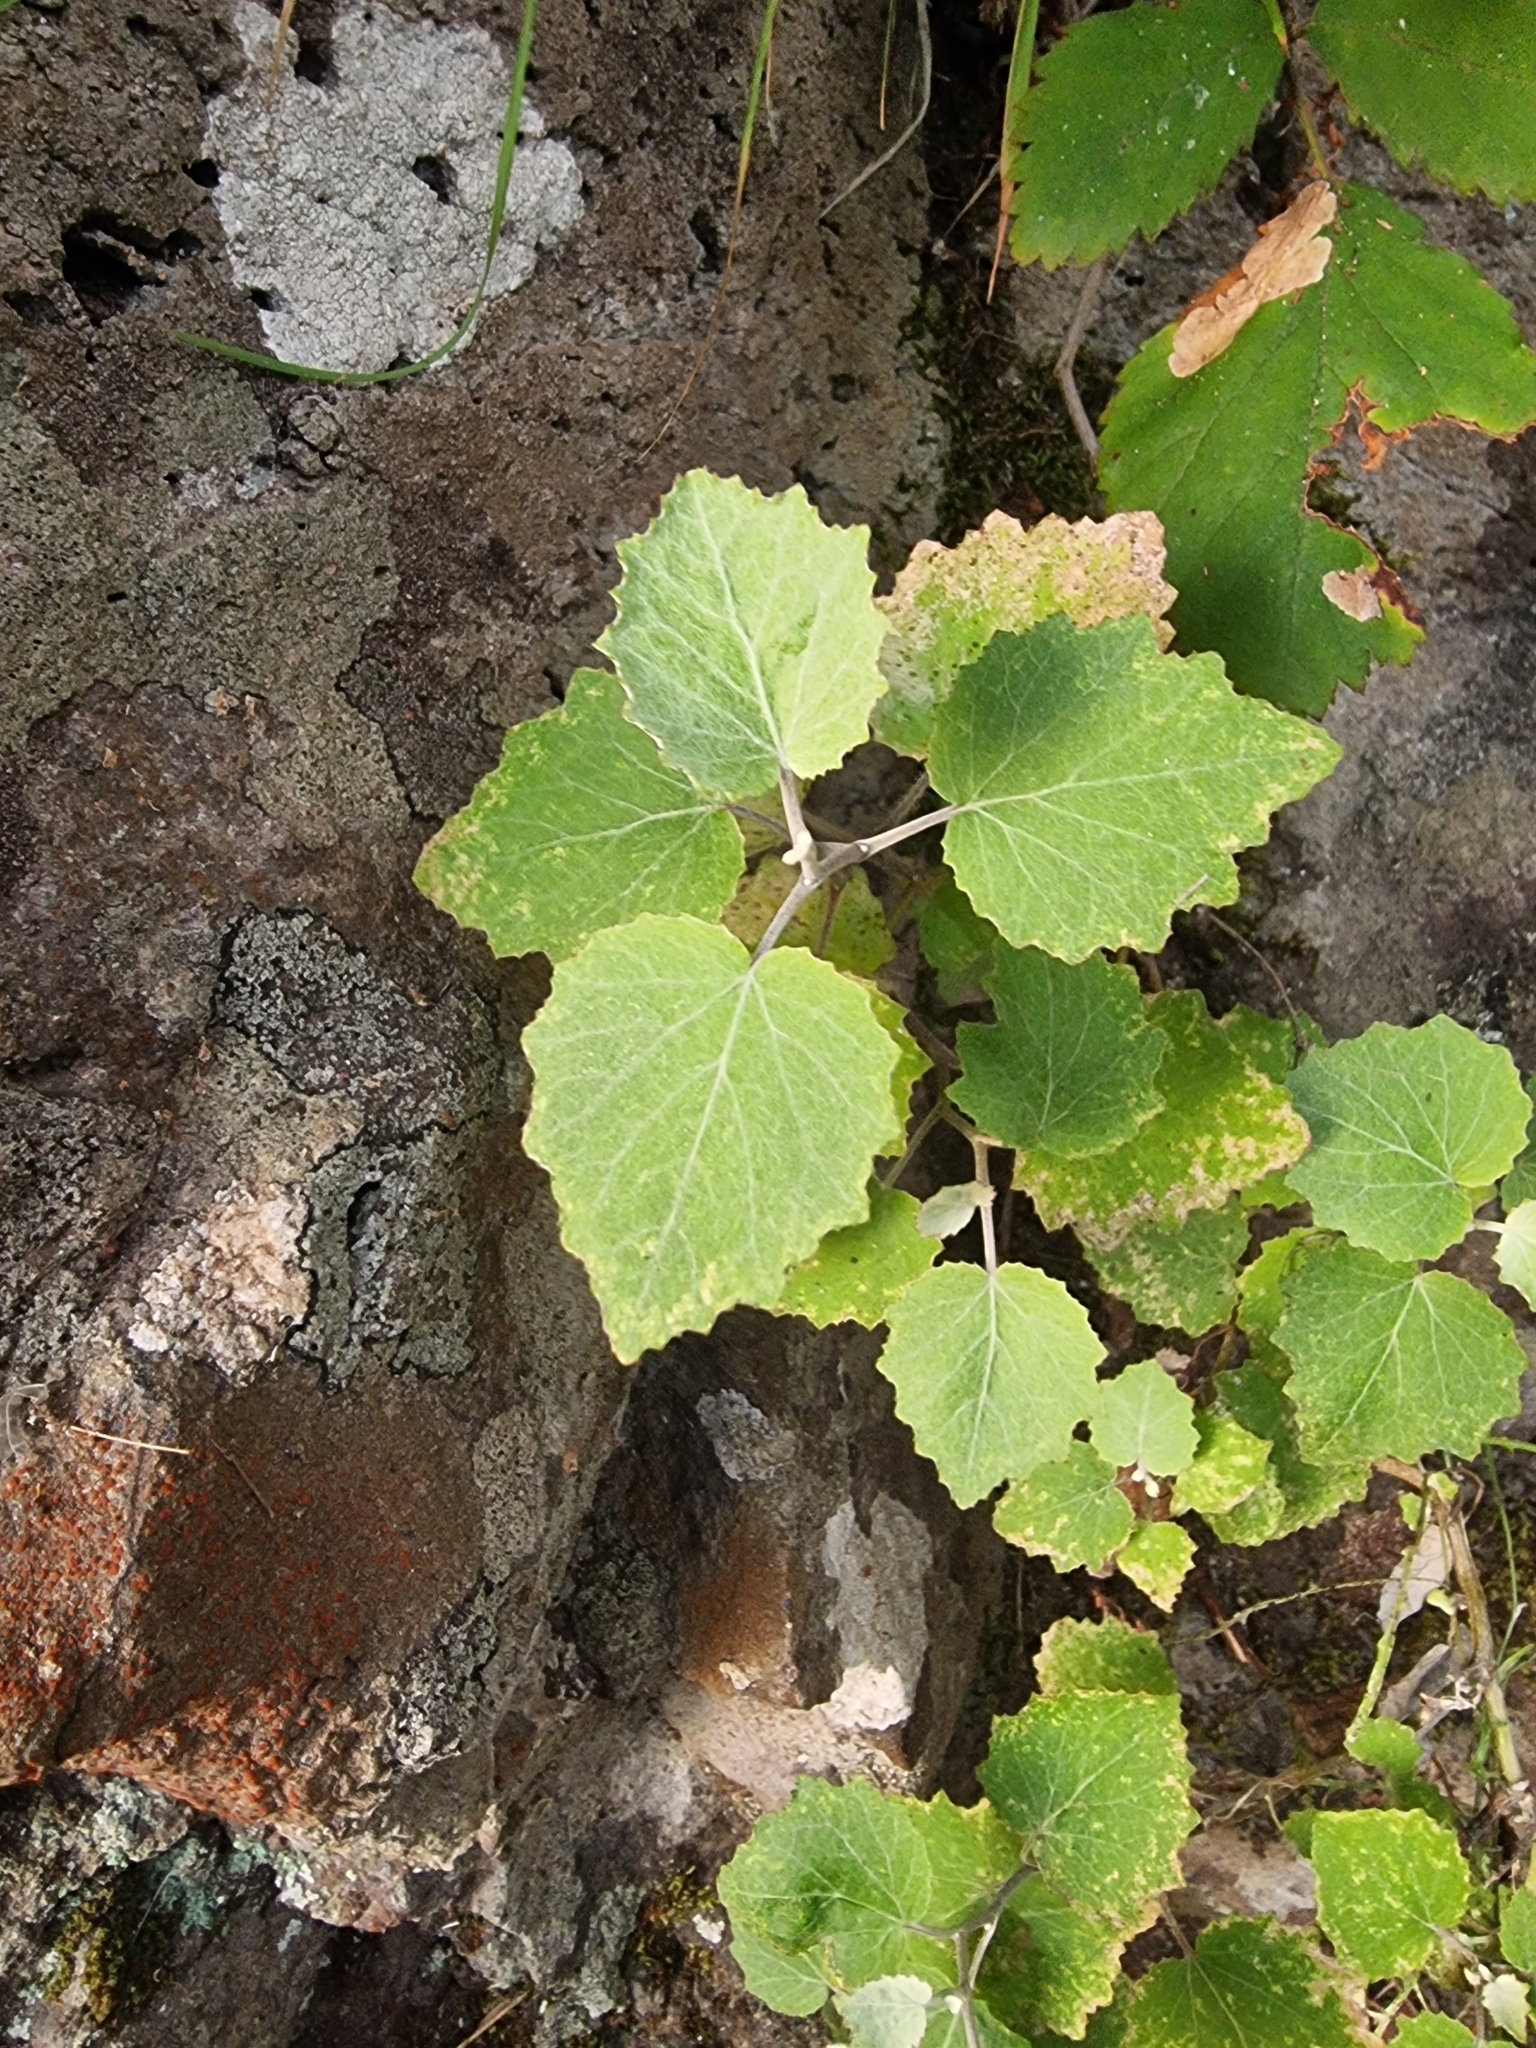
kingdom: Plantae
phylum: Tracheophyta
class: Magnoliopsida
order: Asterales
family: Asteraceae
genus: Pericallis
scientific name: Pericallis aurita
